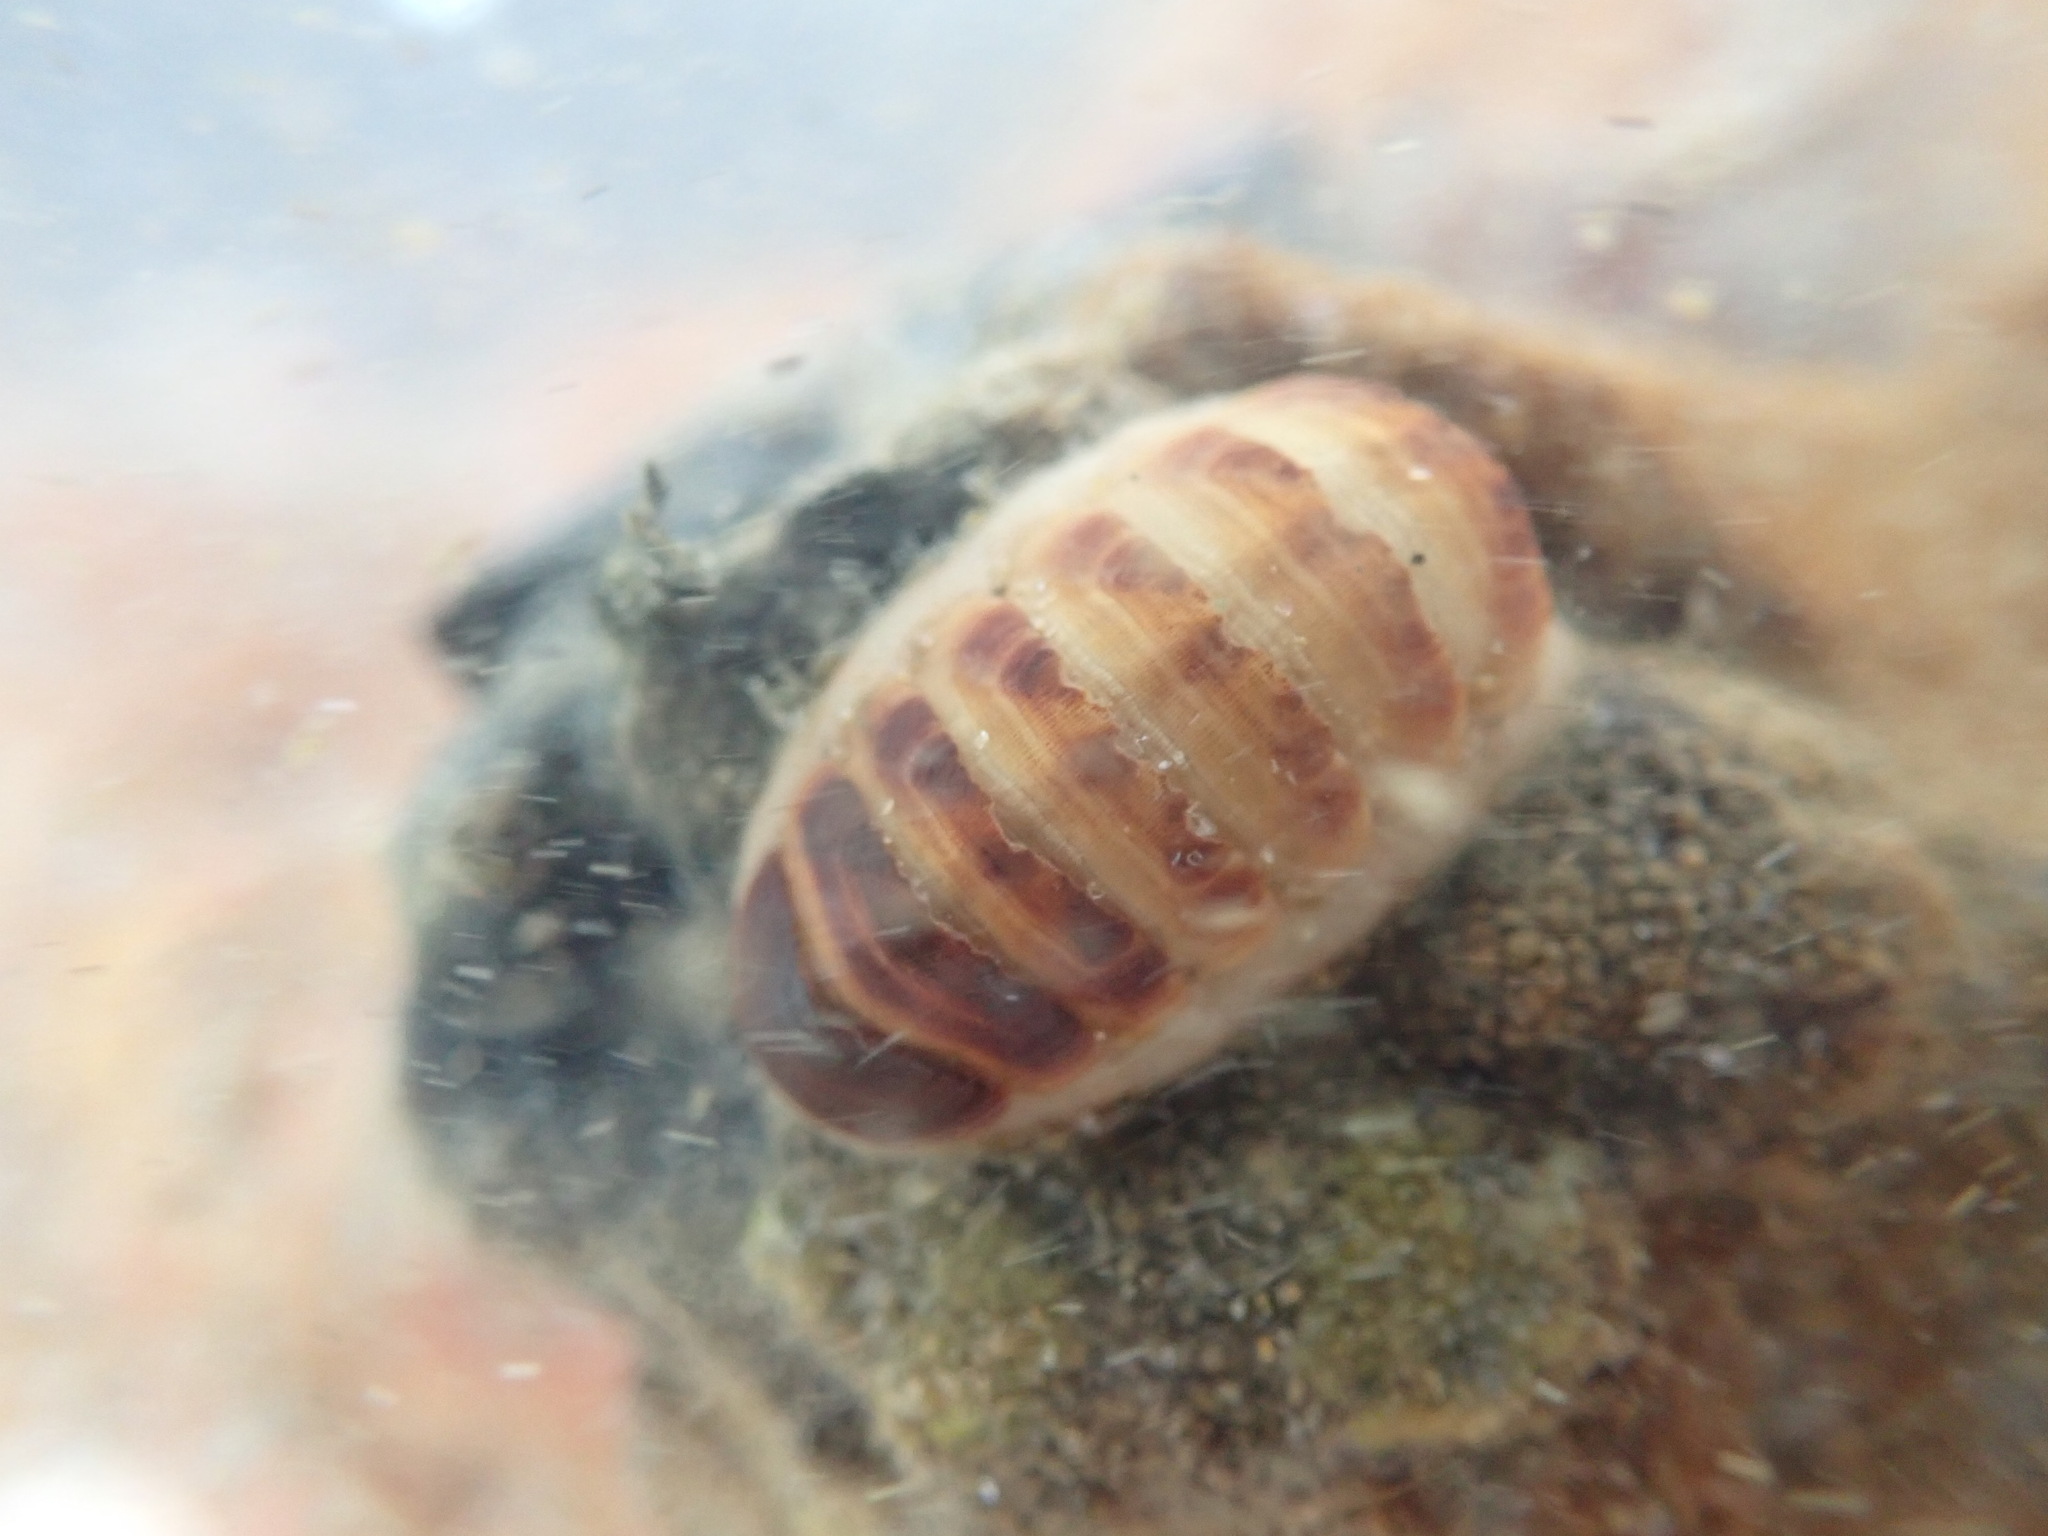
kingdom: Animalia
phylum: Mollusca
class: Polyplacophora
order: Lepidopleurida
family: Leptochitonidae
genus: Leptochiton
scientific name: Leptochiton inquinatus
